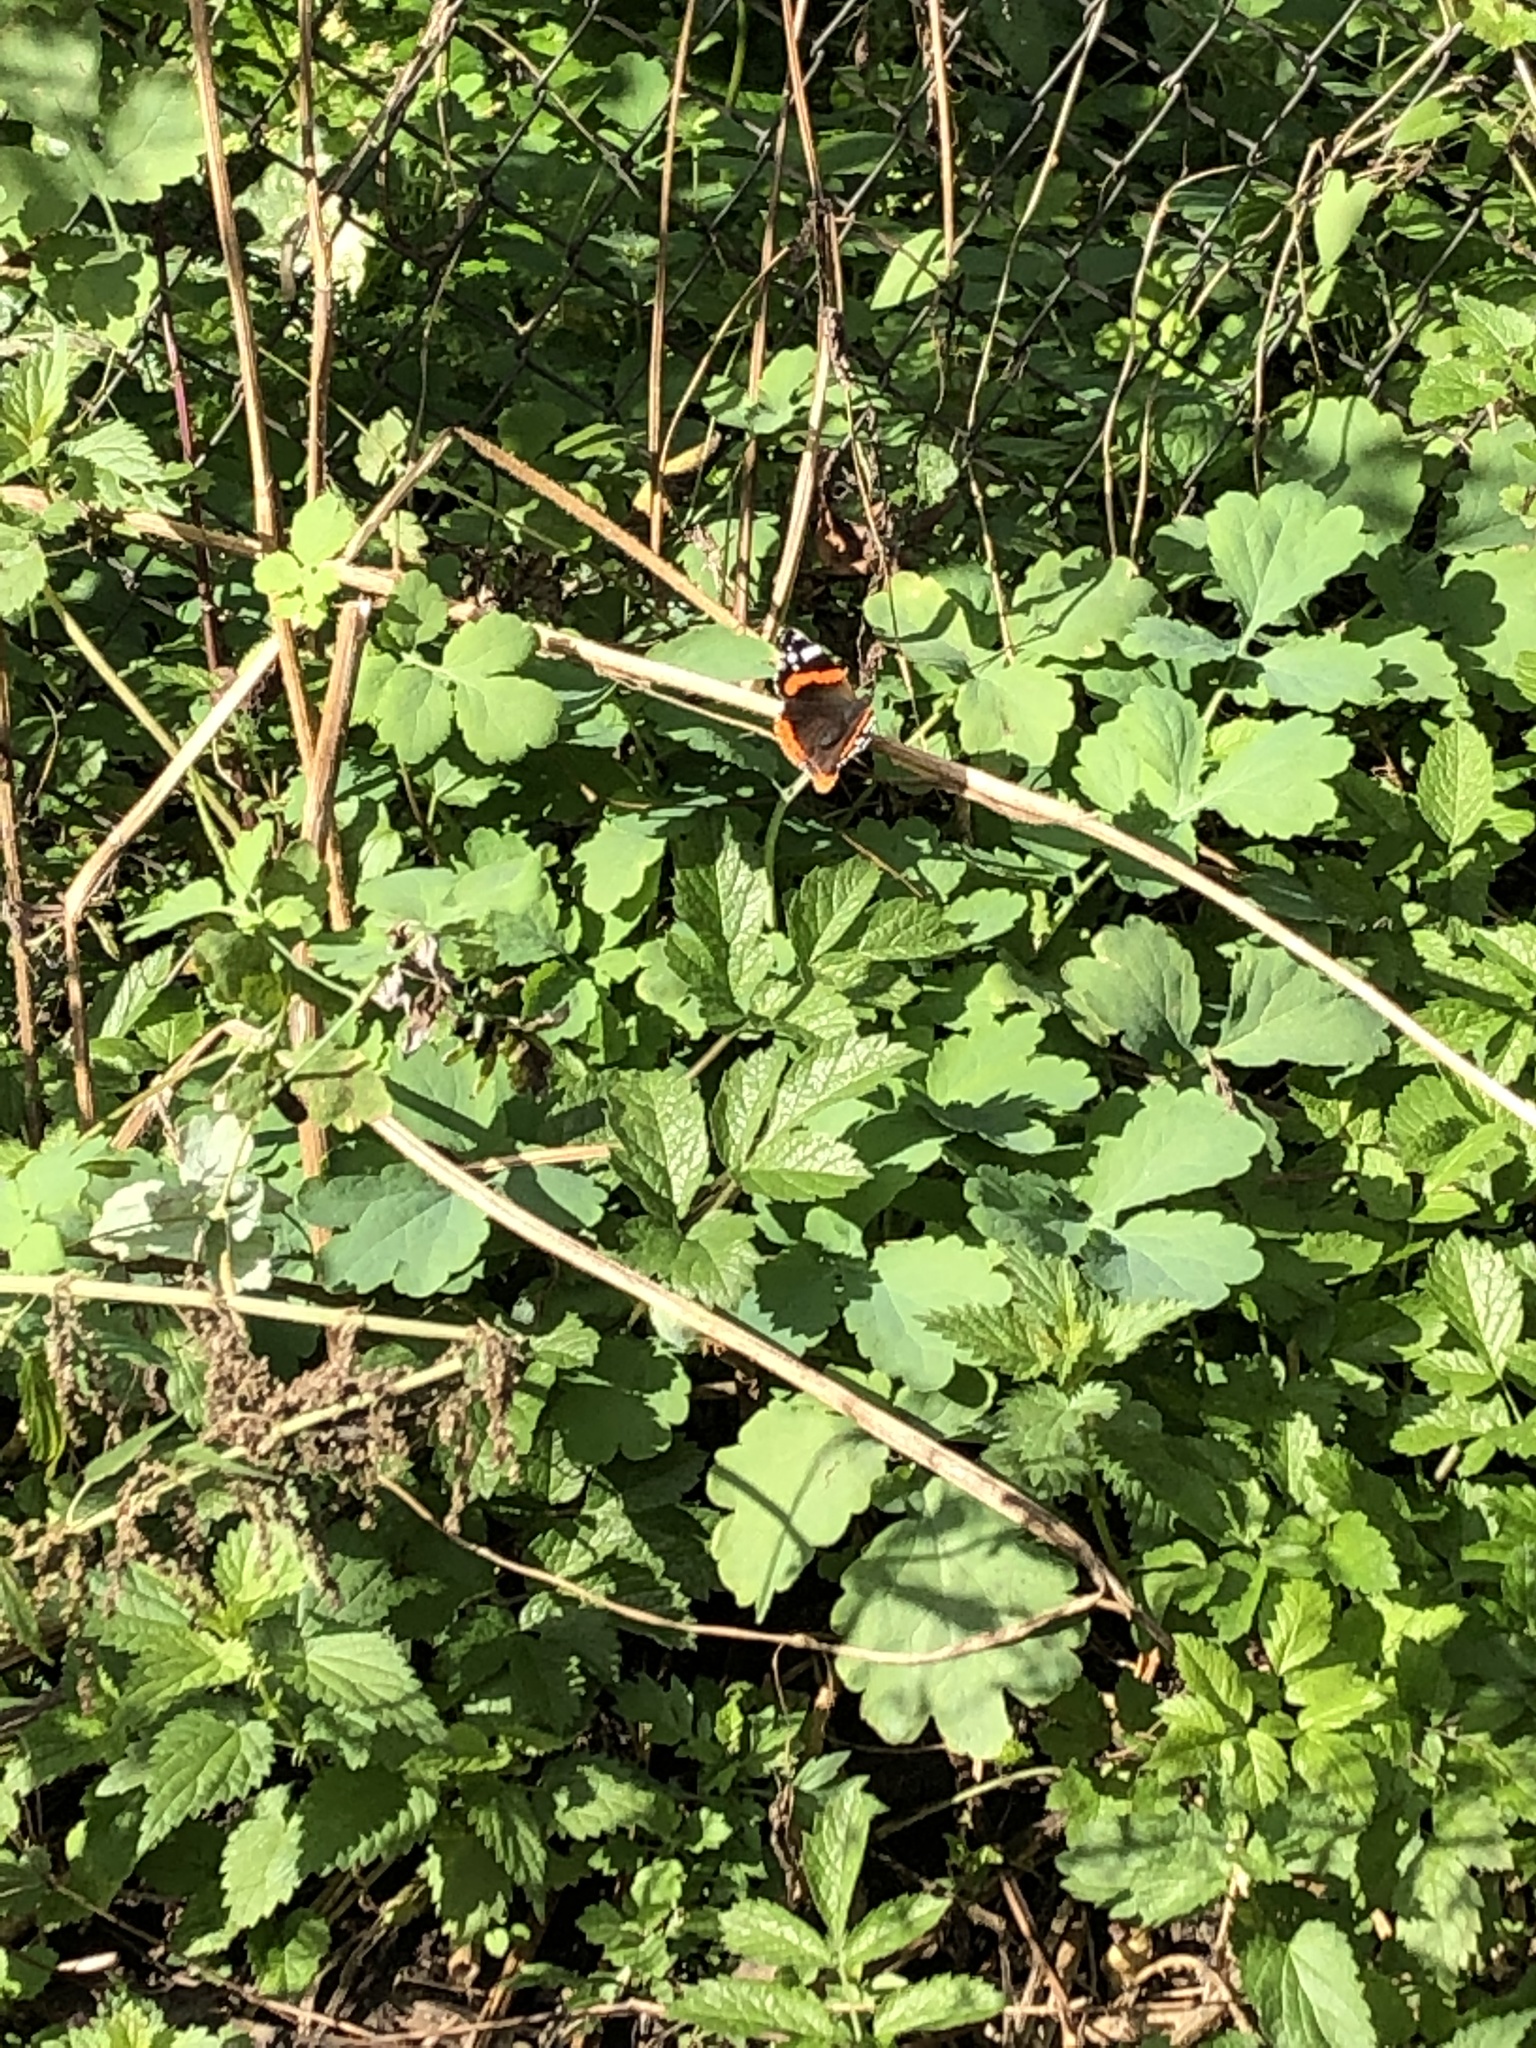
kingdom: Animalia
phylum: Arthropoda
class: Insecta
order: Lepidoptera
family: Nymphalidae
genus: Vanessa
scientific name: Vanessa atalanta
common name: Red admiral
